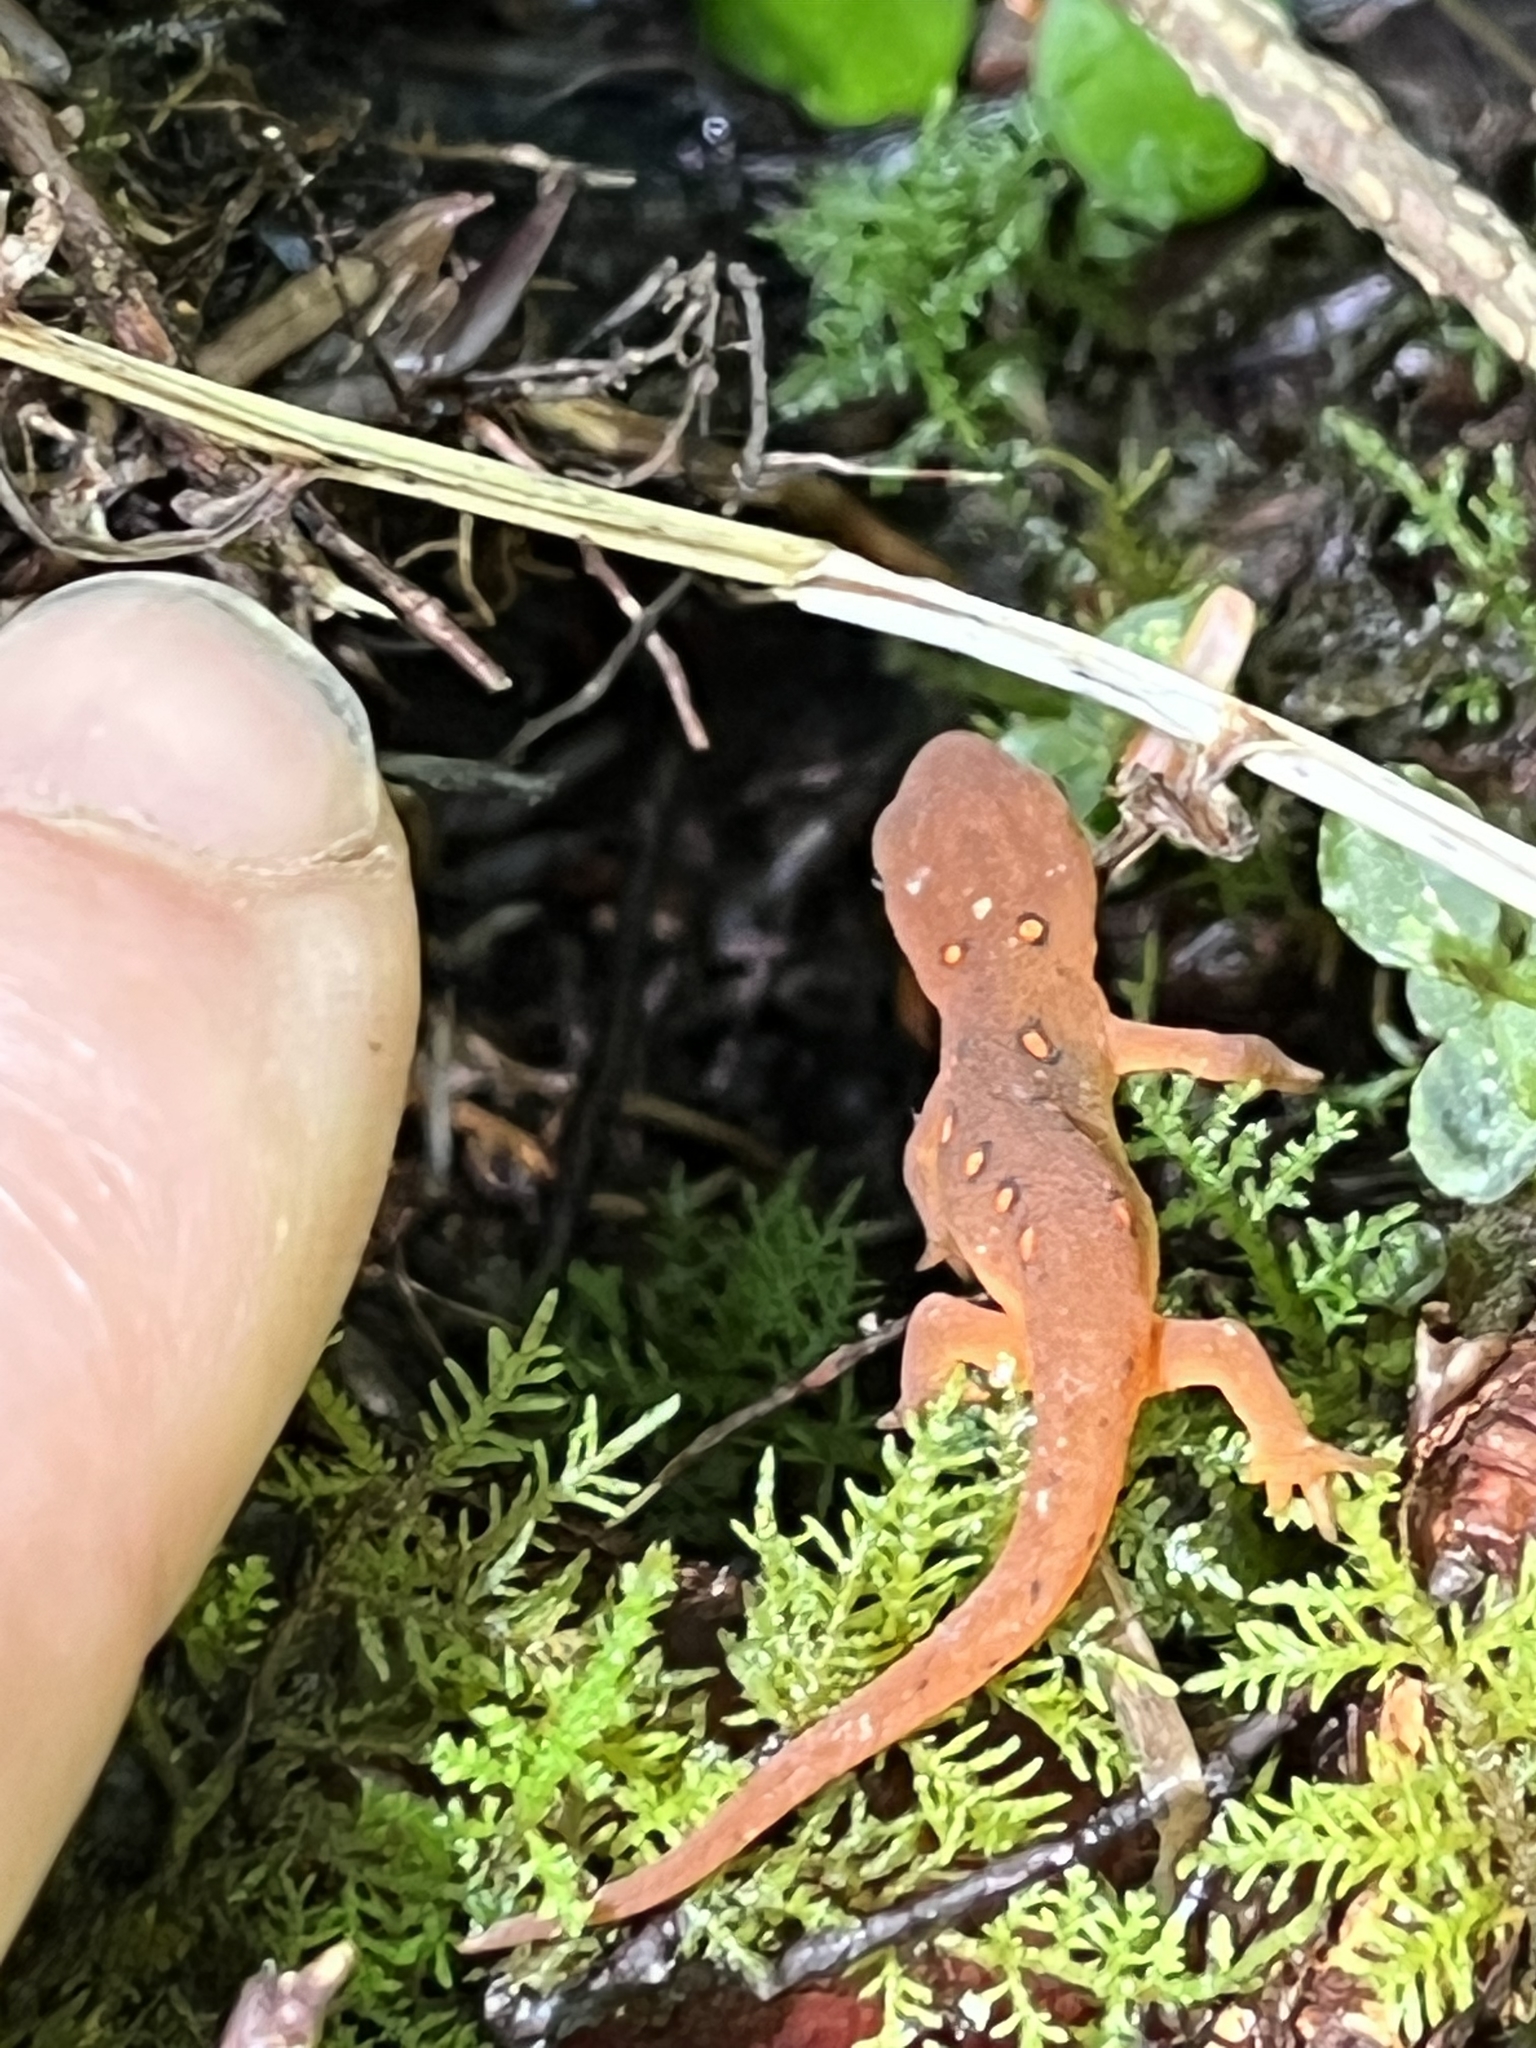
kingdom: Animalia
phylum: Chordata
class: Amphibia
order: Caudata
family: Salamandridae
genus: Notophthalmus
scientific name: Notophthalmus viridescens
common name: Eastern newt
